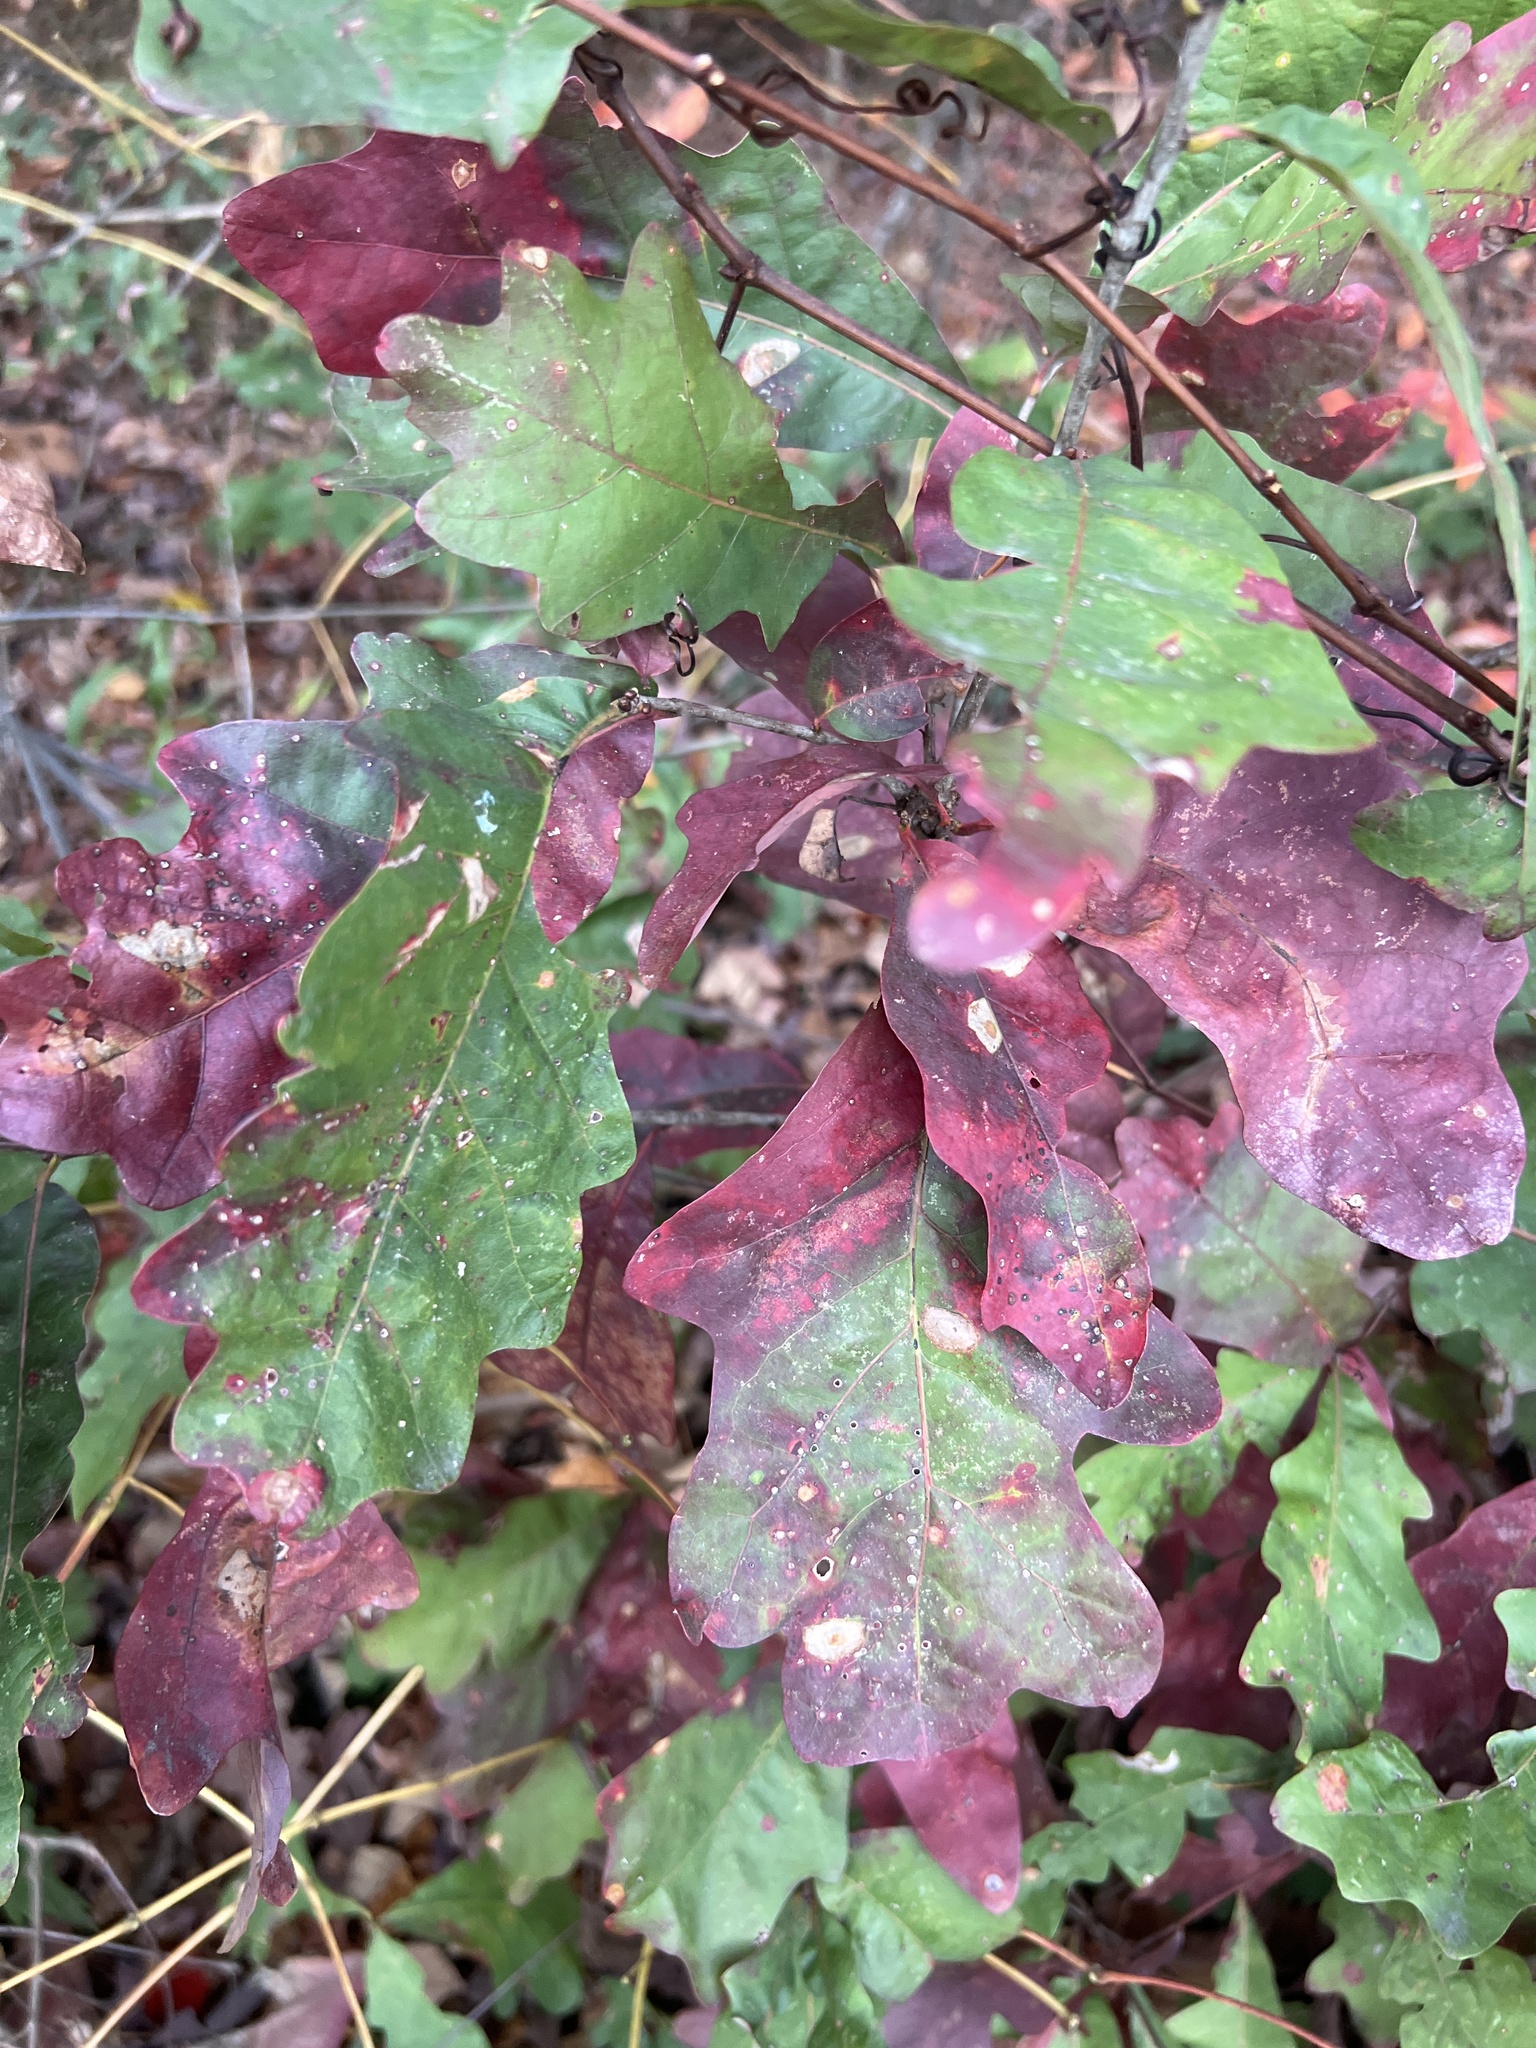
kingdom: Plantae
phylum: Tracheophyta
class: Magnoliopsida
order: Fagales
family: Fagaceae
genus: Quercus
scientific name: Quercus alba
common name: White oak
